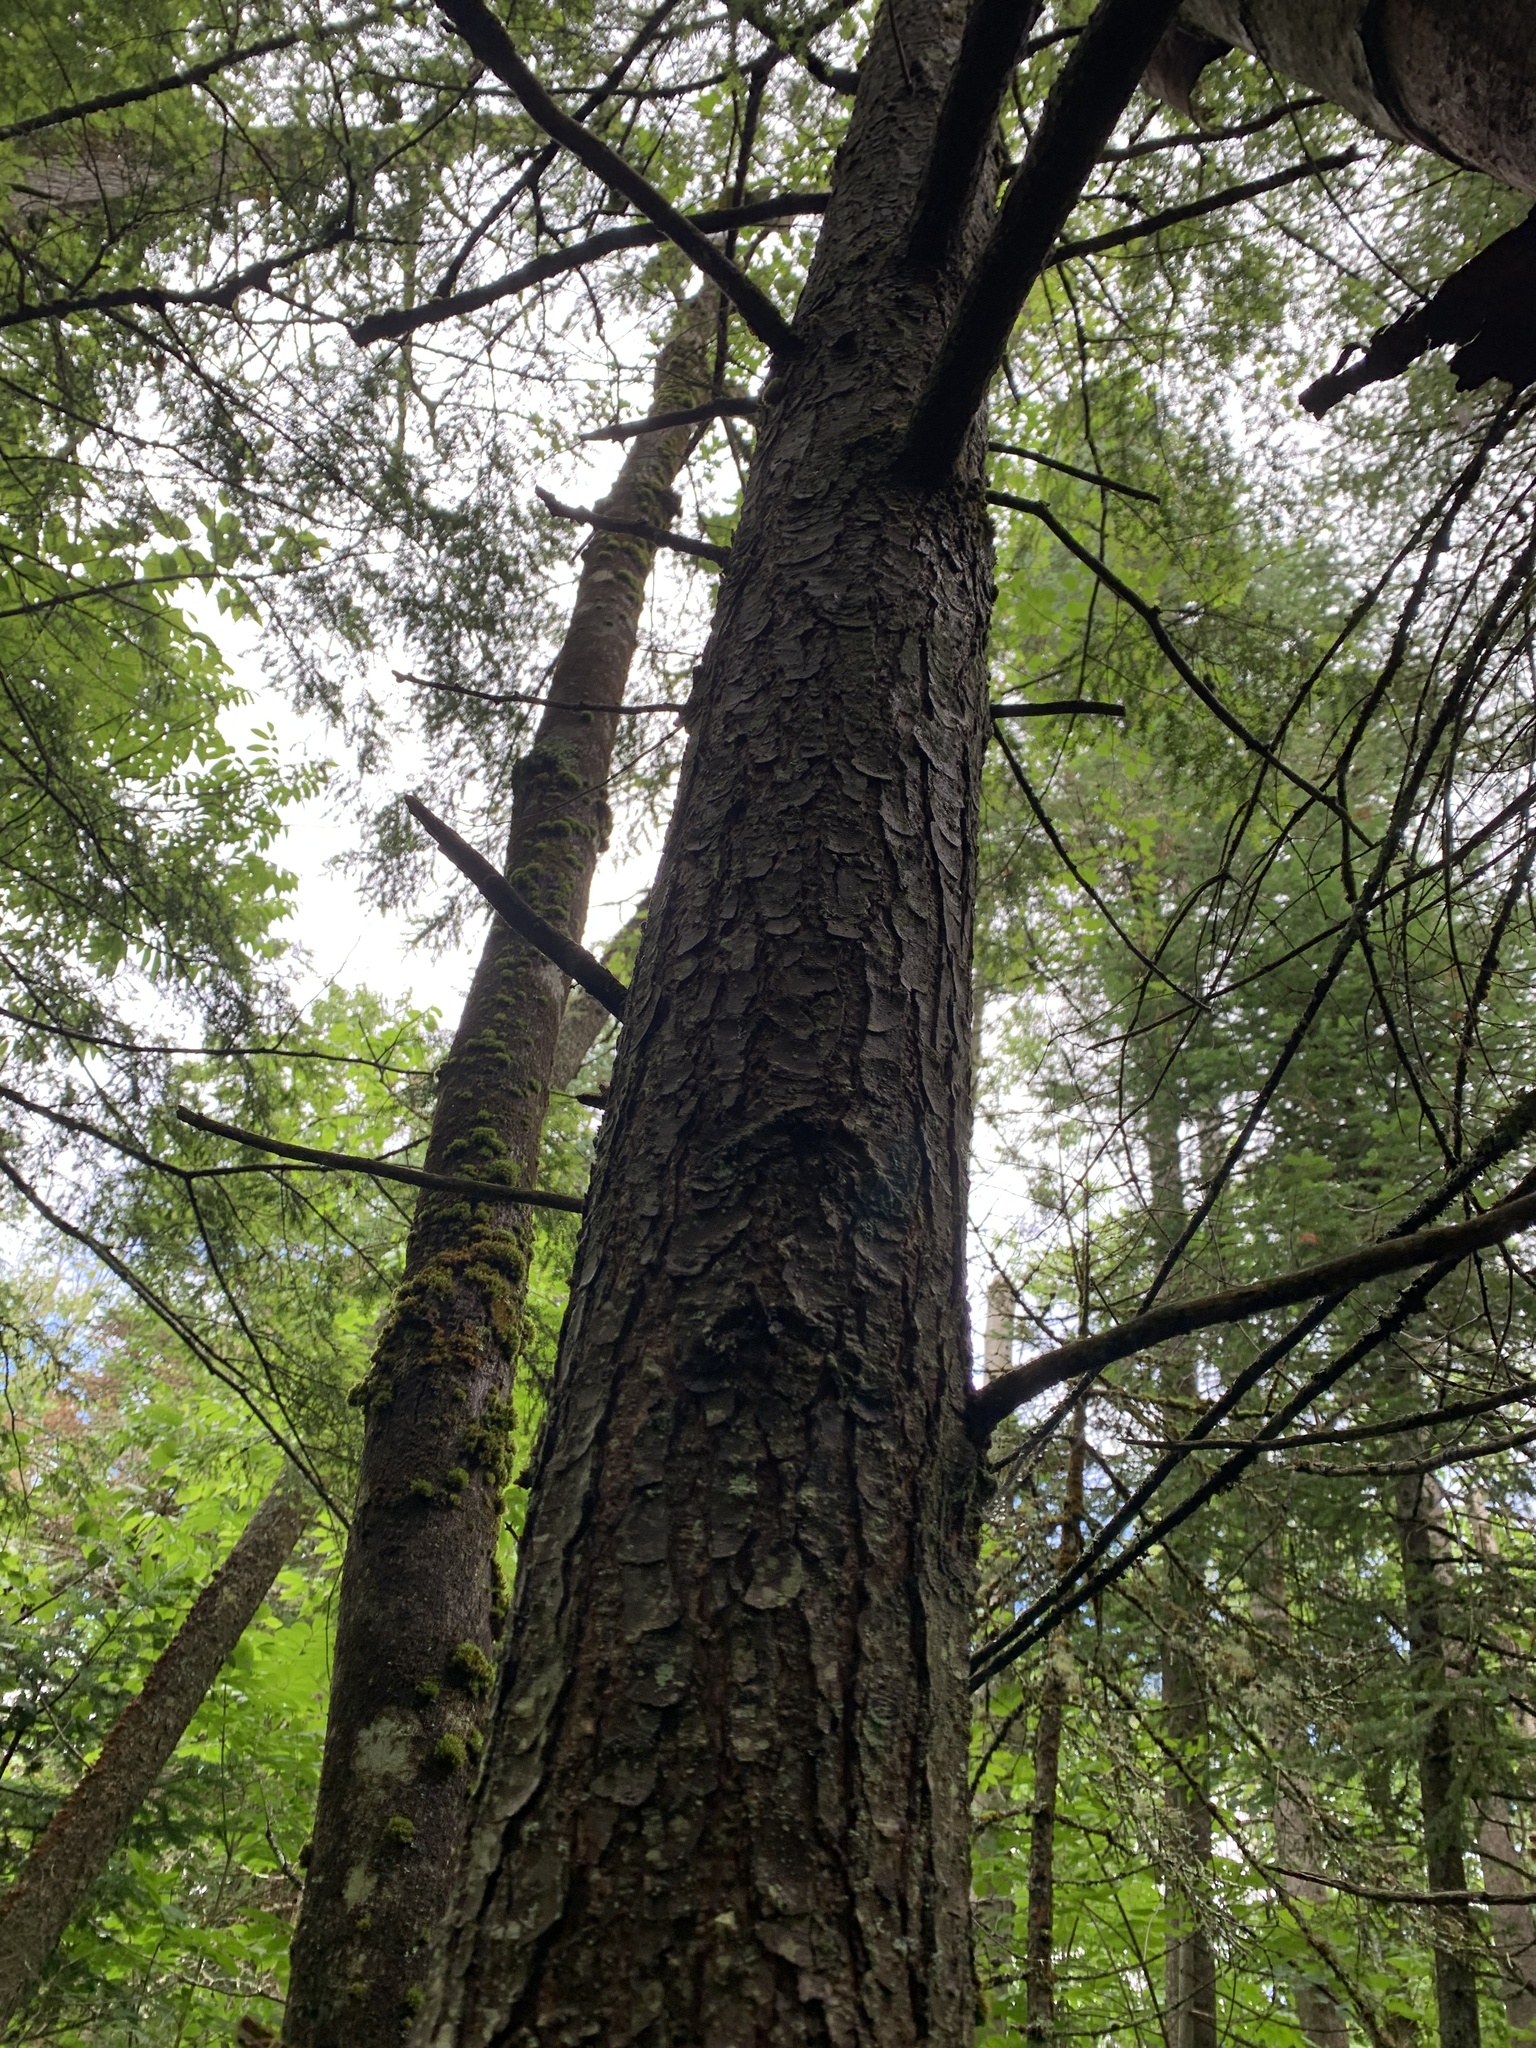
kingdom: Plantae
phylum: Tracheophyta
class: Pinopsida
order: Pinales
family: Pinaceae
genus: Tsuga
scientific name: Tsuga canadensis
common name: Eastern hemlock
